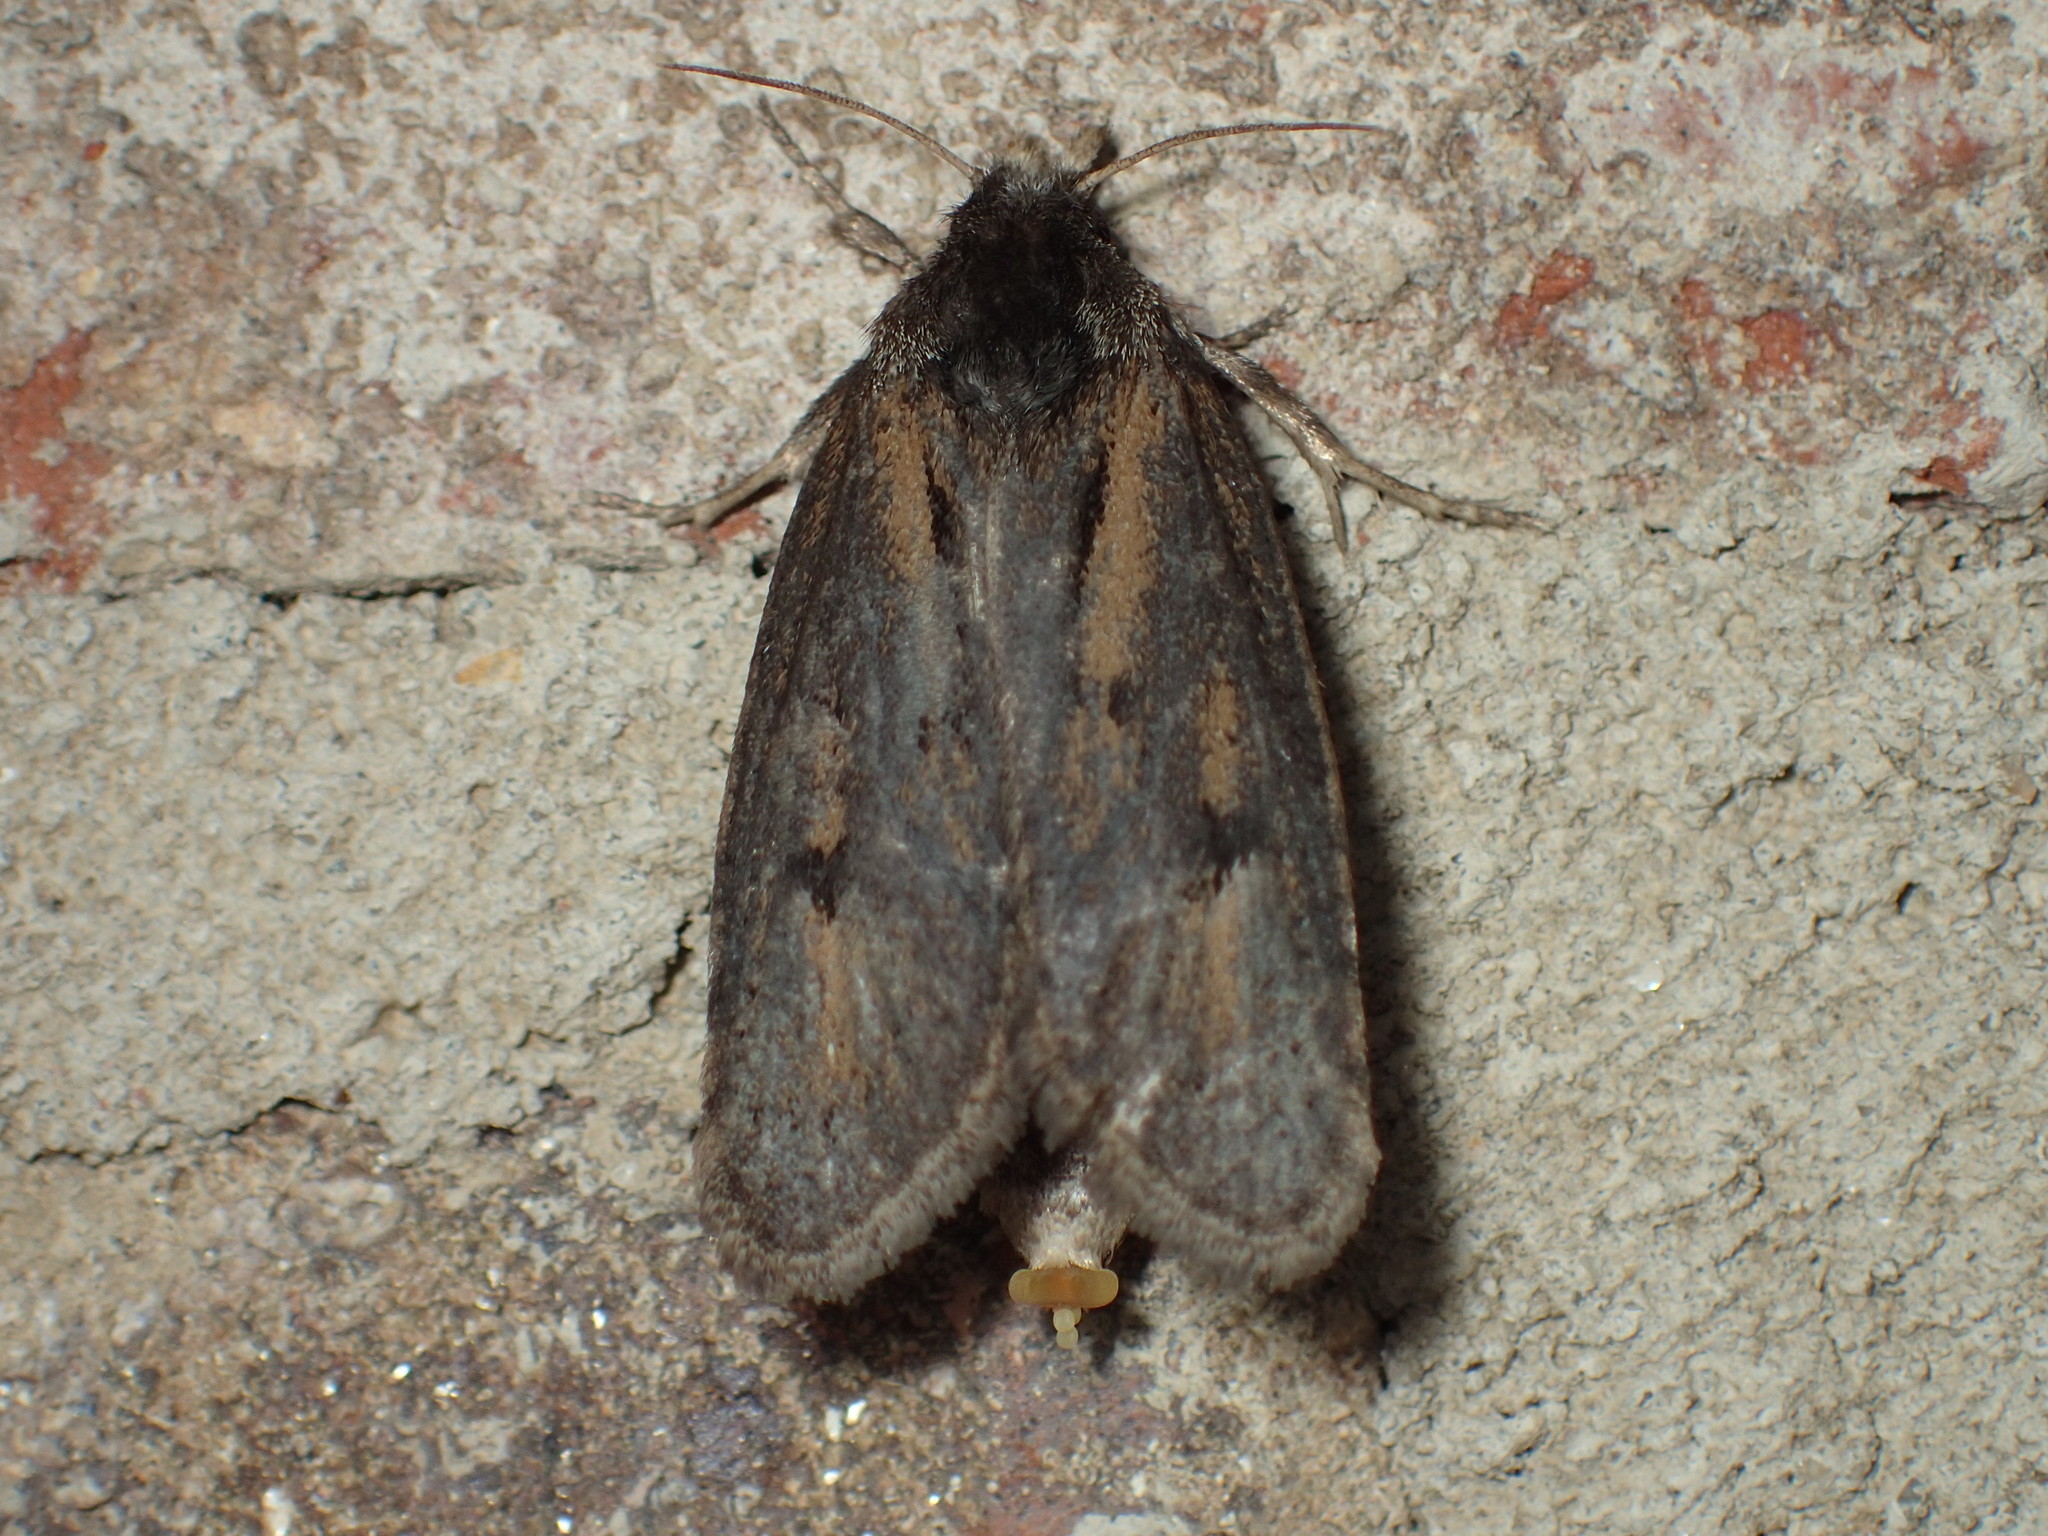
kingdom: Animalia
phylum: Arthropoda
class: Insecta
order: Lepidoptera
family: Tineidae
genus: Acrolophus
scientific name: Acrolophus popeanella
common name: Clemens' grass tubeworm moth
